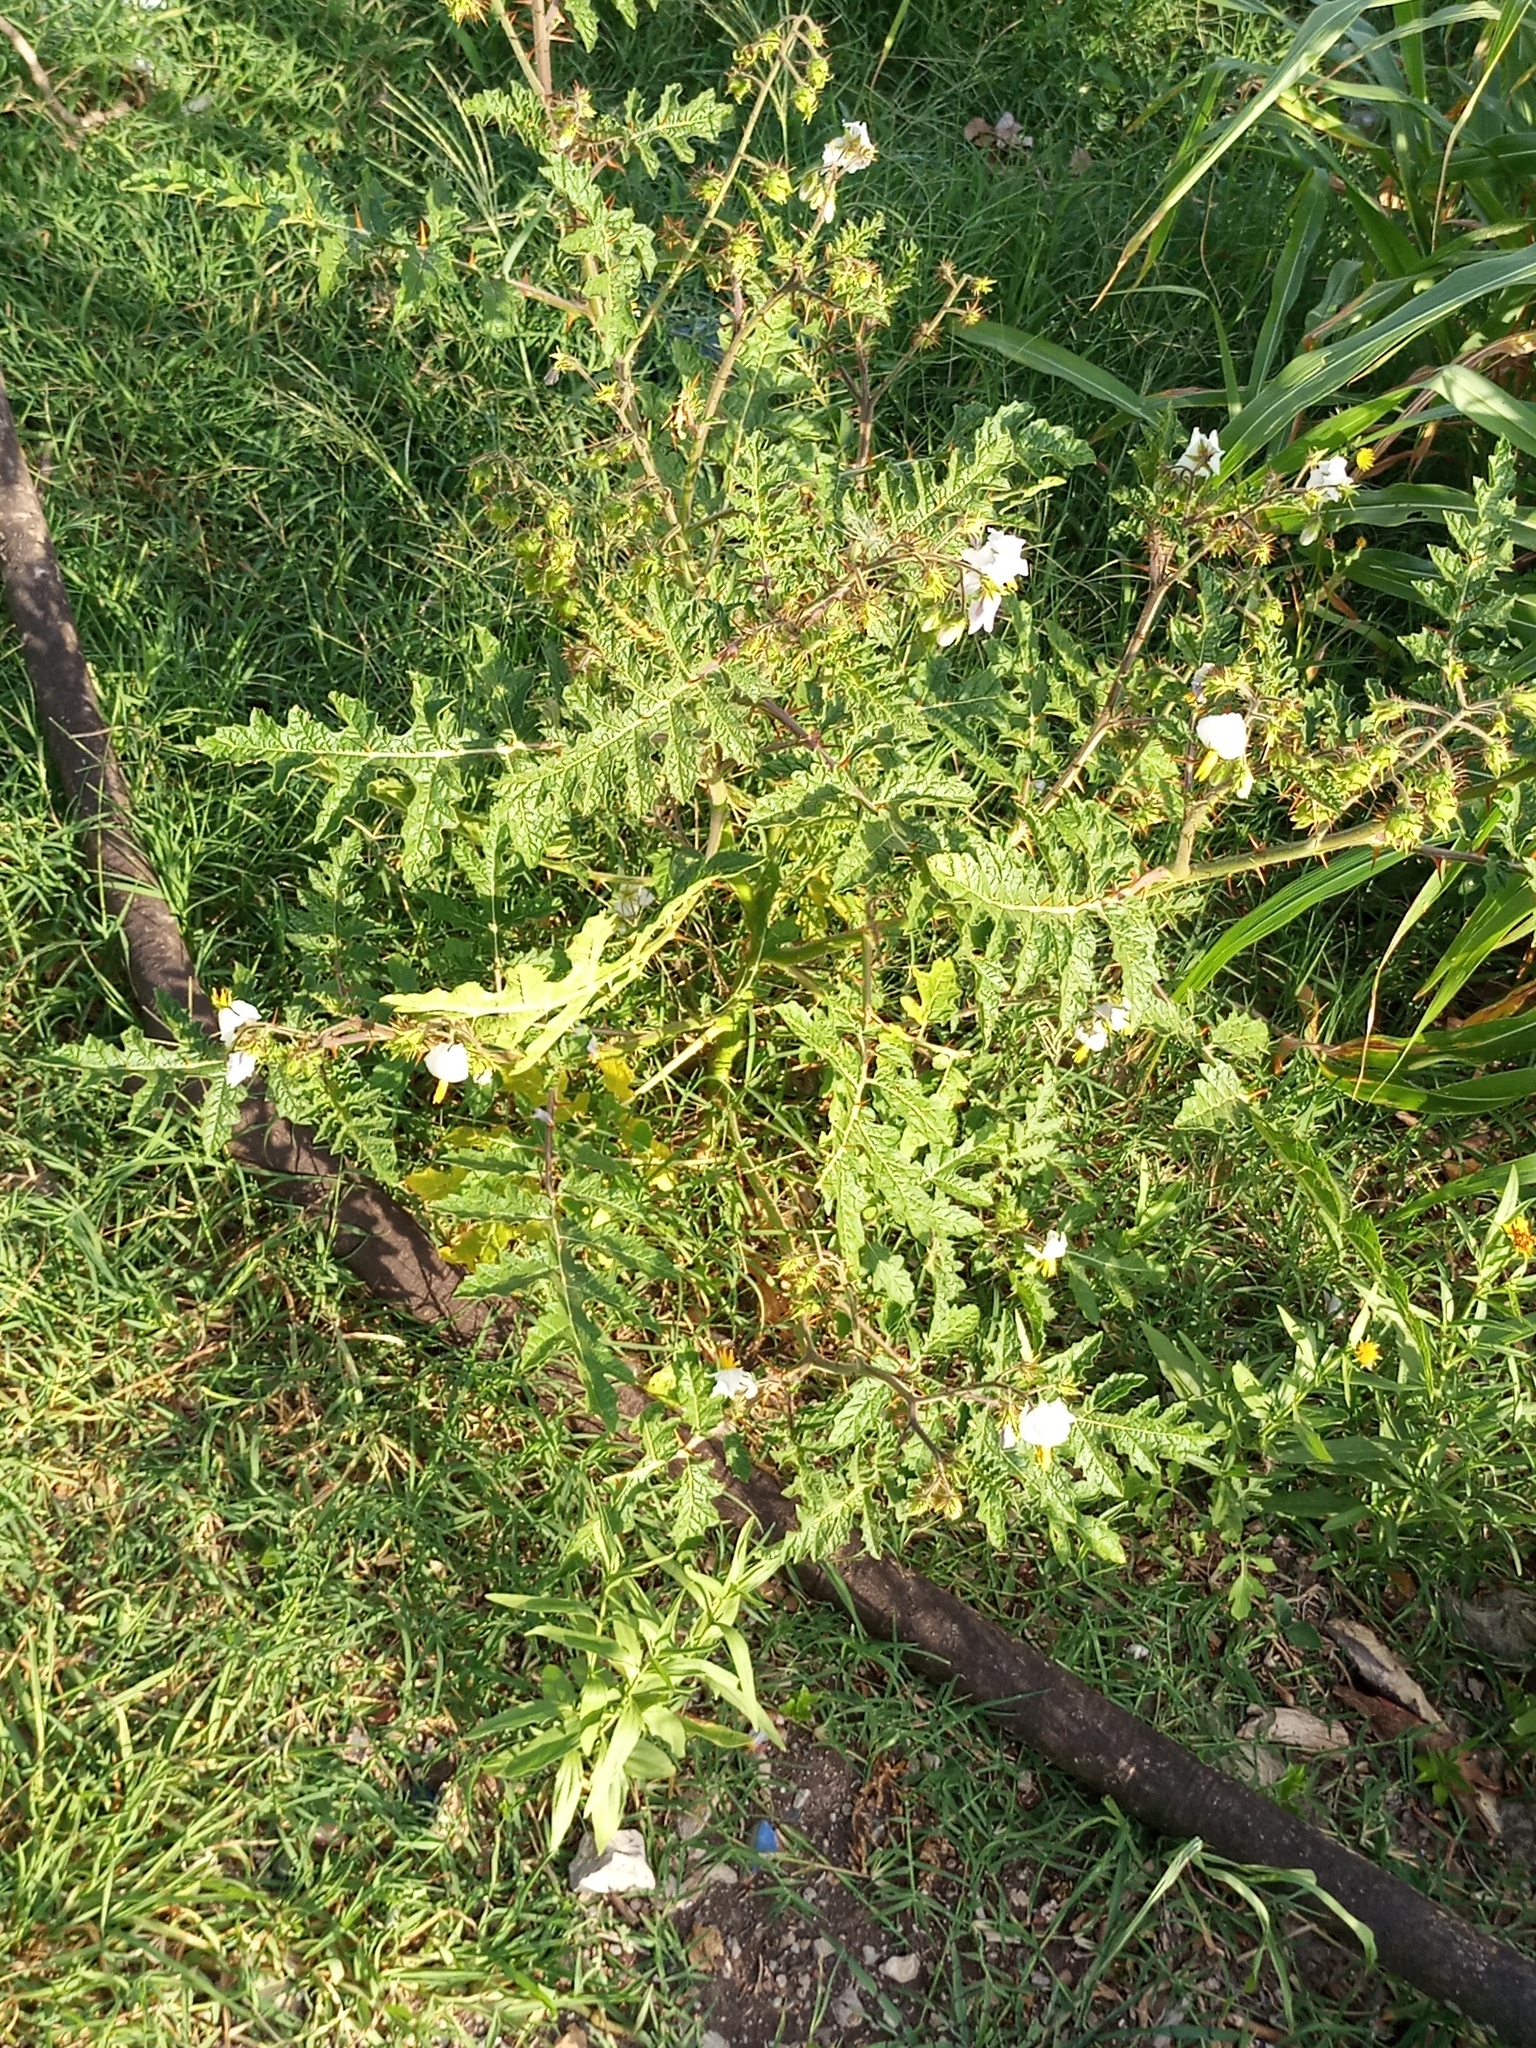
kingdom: Plantae
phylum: Tracheophyta
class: Magnoliopsida
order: Solanales
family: Solanaceae
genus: Solanum
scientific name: Solanum sisymbriifolium
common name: Red buffalo-bur
